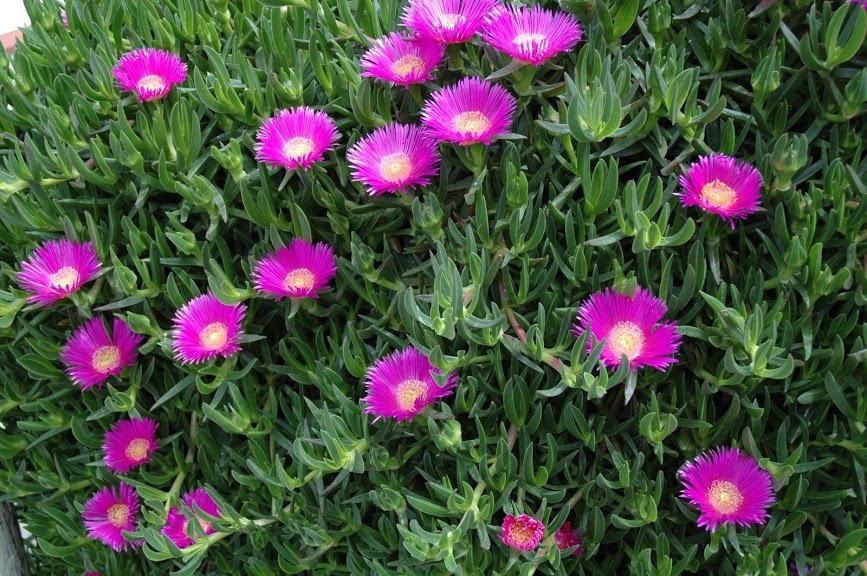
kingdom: Plantae
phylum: Tracheophyta
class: Magnoliopsida
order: Caryophyllales
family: Aizoaceae
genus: Carpobrotus
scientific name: Carpobrotus acinaciformis
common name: Sally-my-handsome
